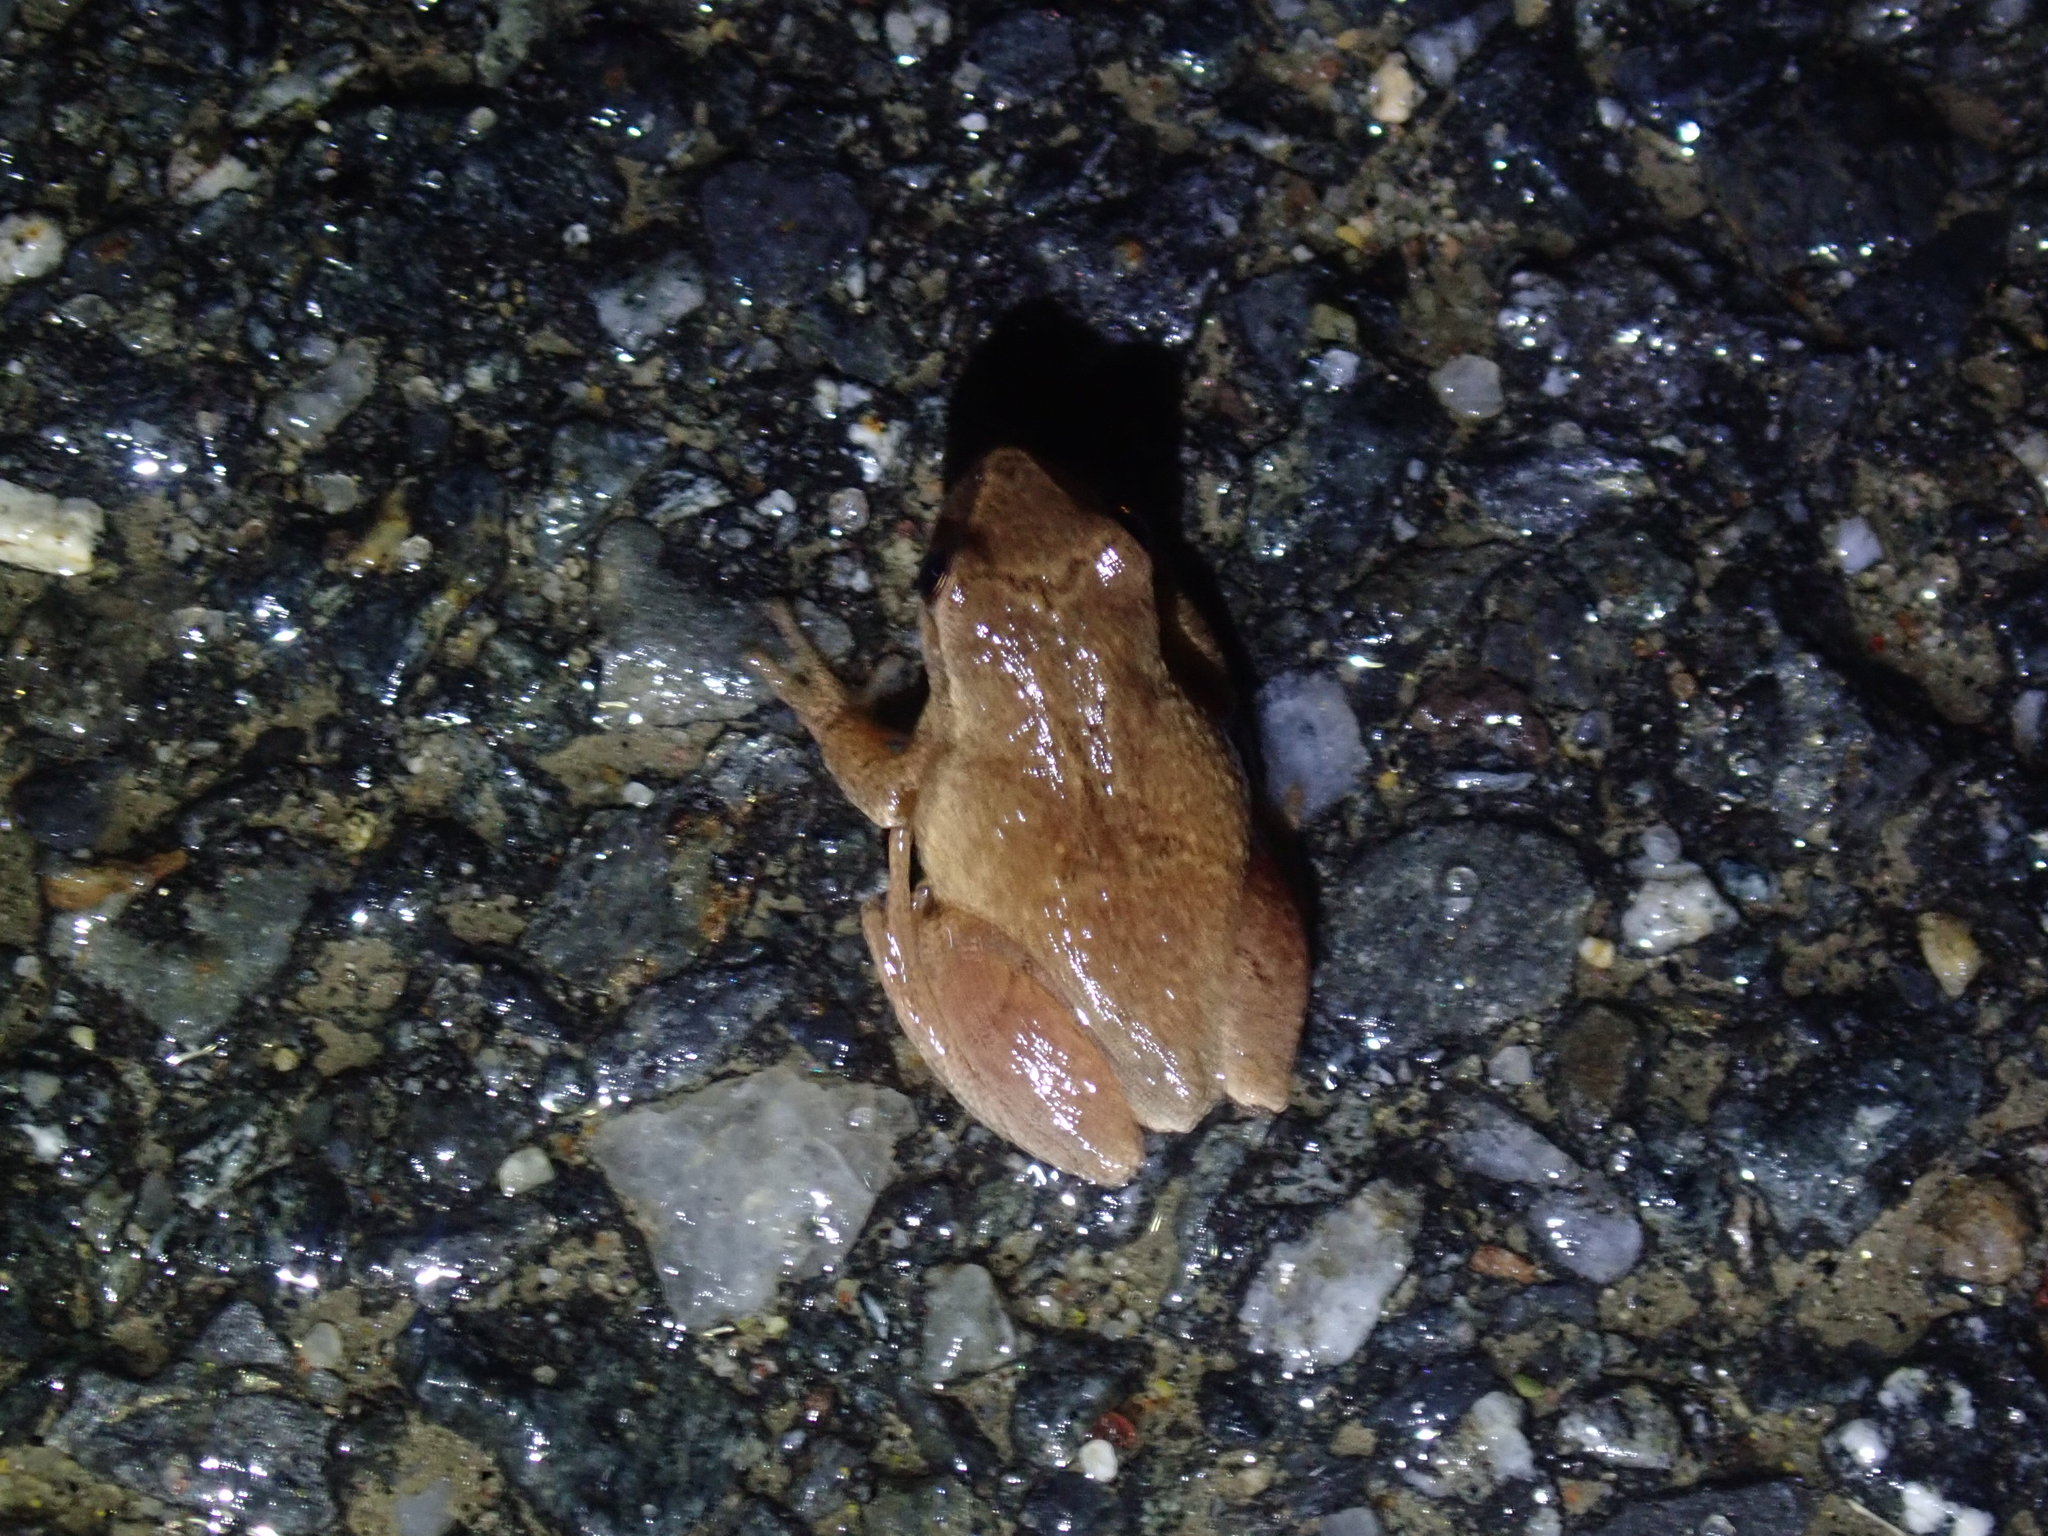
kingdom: Animalia
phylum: Chordata
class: Amphibia
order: Anura
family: Hylidae
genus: Pseudacris
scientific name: Pseudacris crucifer
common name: Spring peeper
